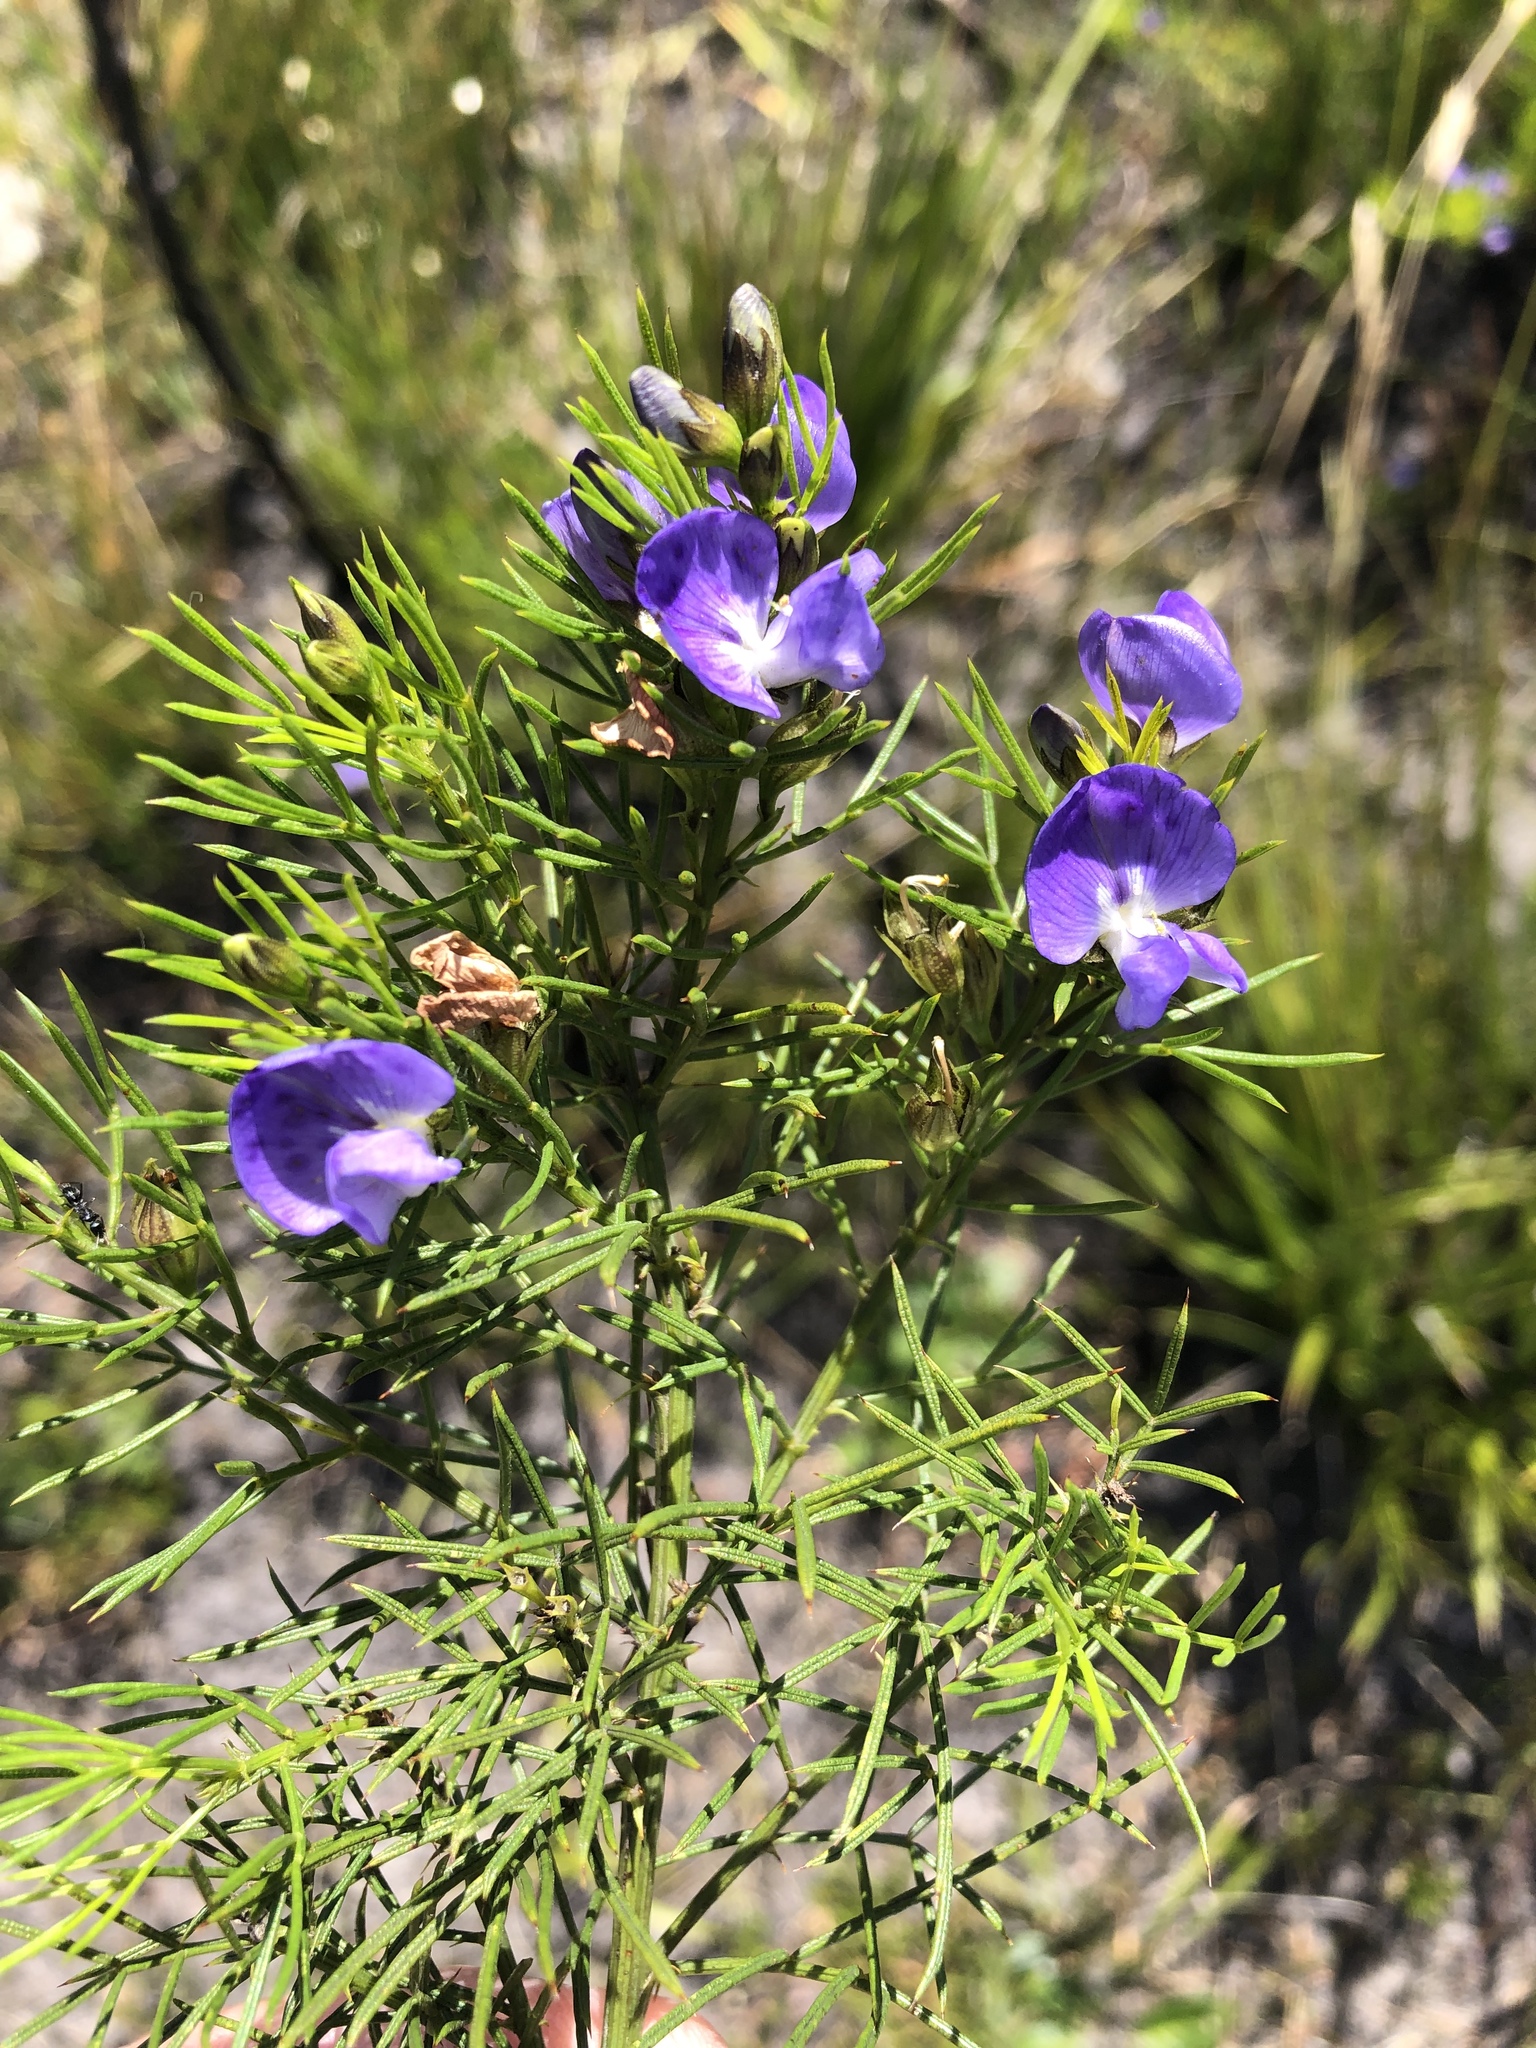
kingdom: Plantae
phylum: Tracheophyta
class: Magnoliopsida
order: Fabales
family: Fabaceae
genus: Psoralea
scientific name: Psoralea azuroides
